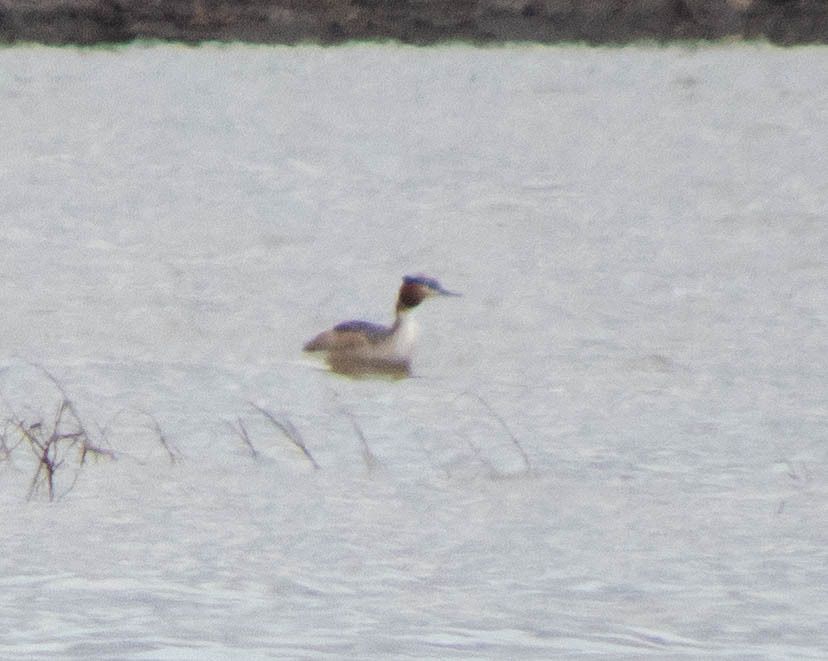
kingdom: Animalia
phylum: Chordata
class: Aves
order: Podicipediformes
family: Podicipedidae
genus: Podiceps
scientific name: Podiceps cristatus
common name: Great crested grebe
